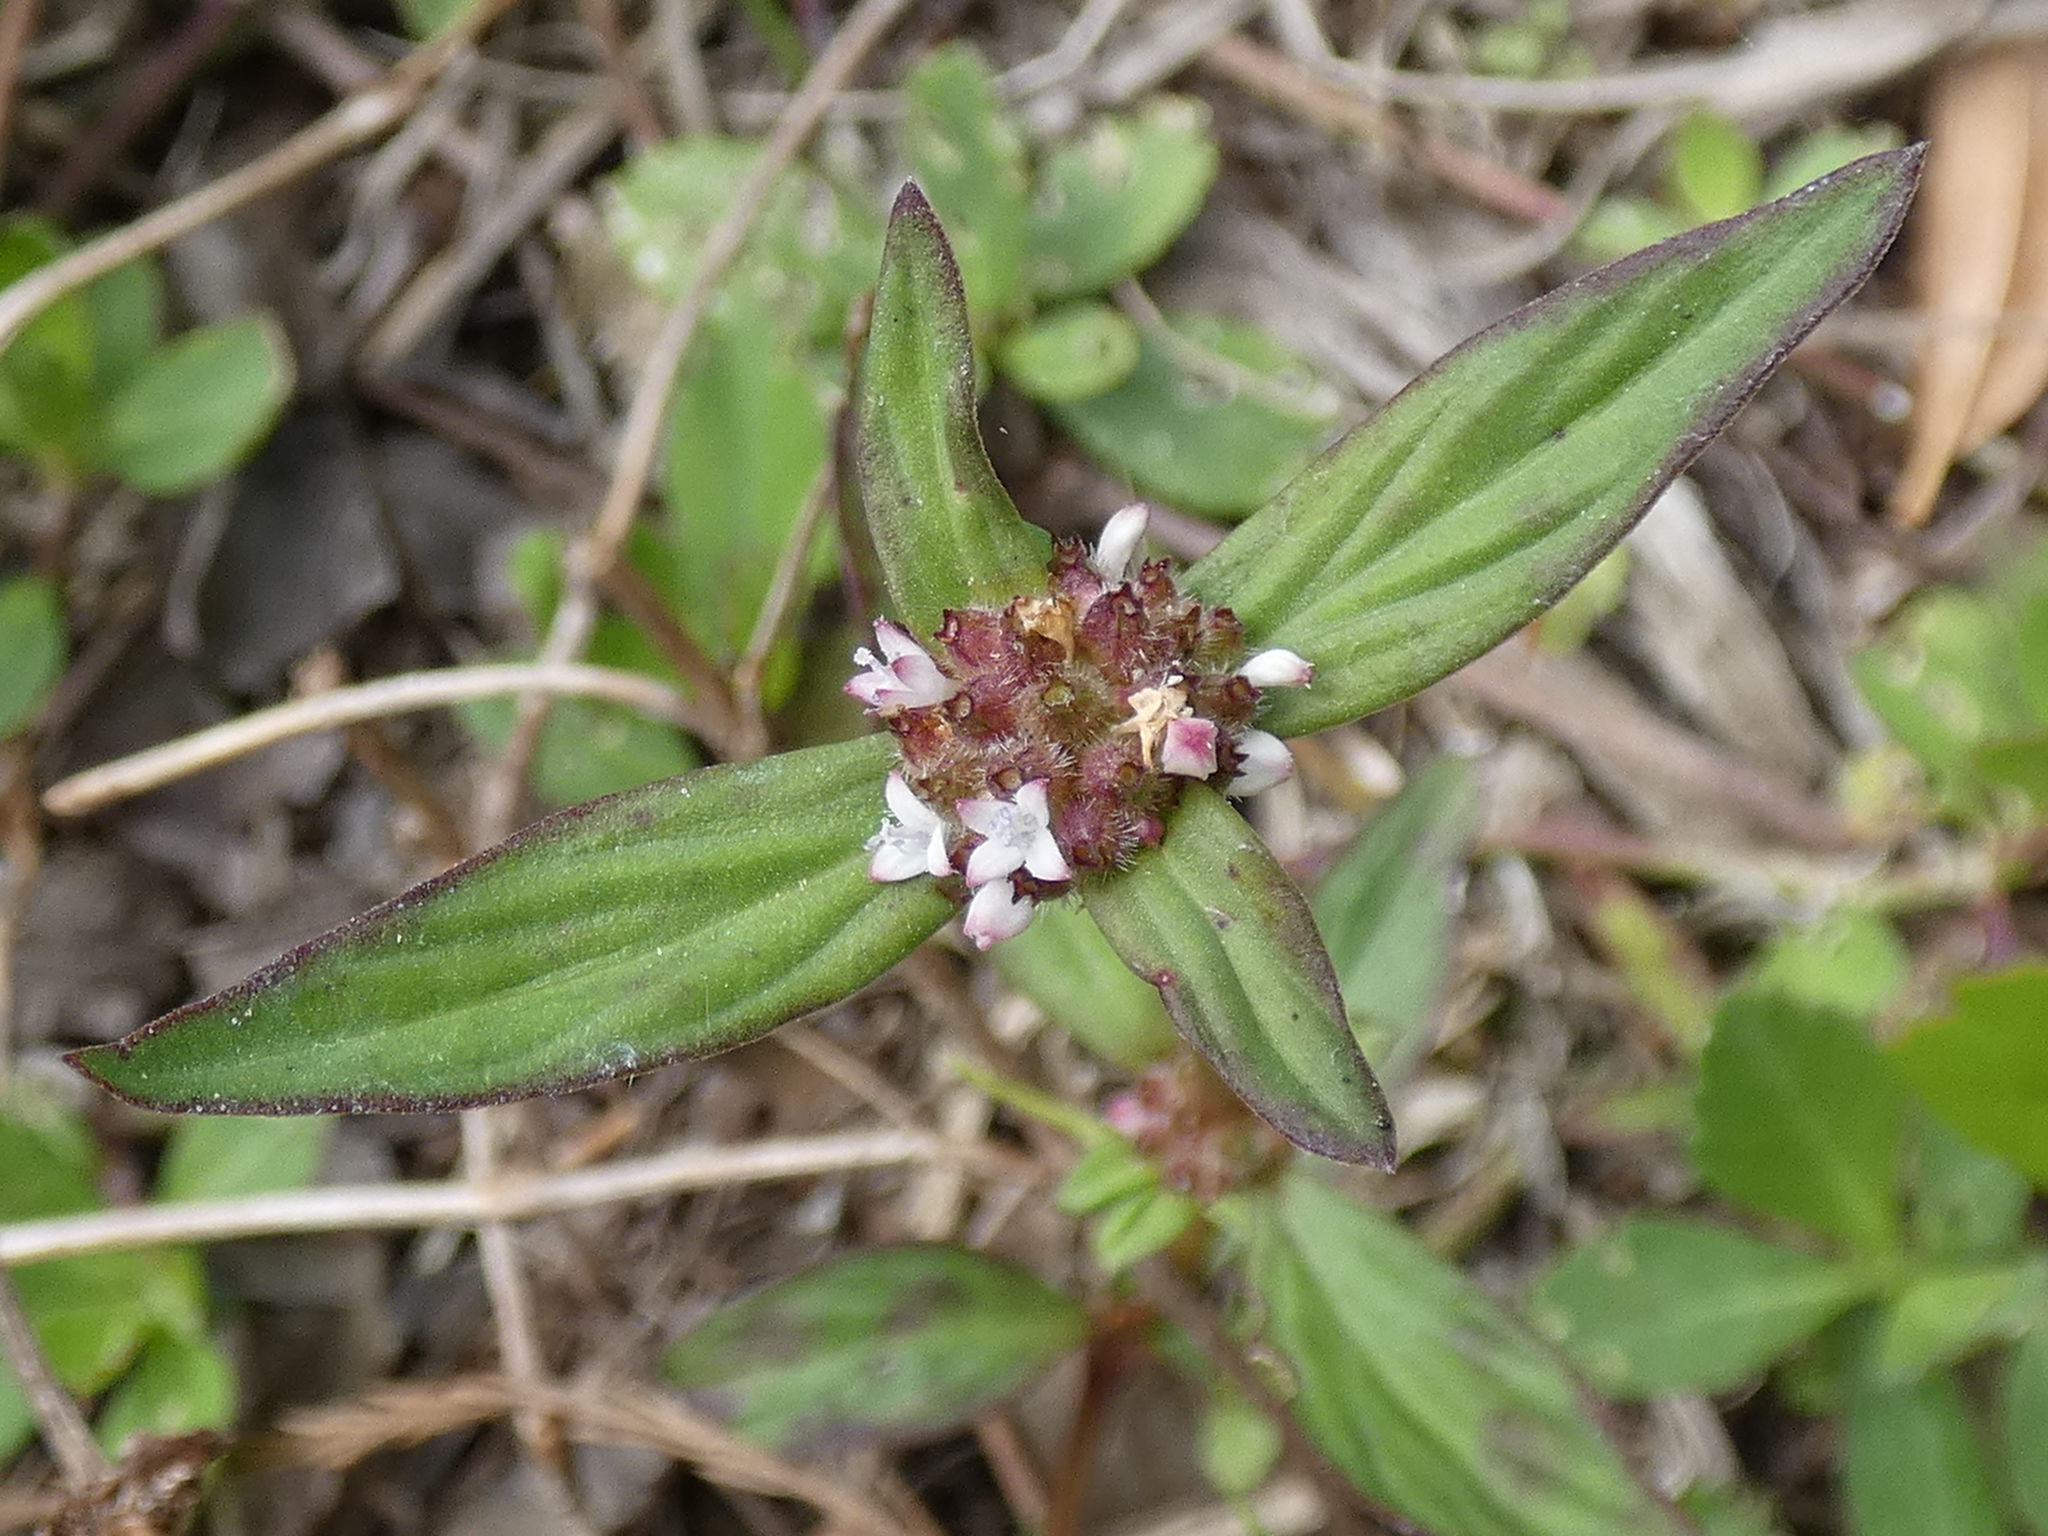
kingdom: Plantae
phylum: Tracheophyta
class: Magnoliopsida
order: Gentianales
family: Rubiaceae
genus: Spermacoce
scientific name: Spermacoce remota
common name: Woodland false buttonweed
